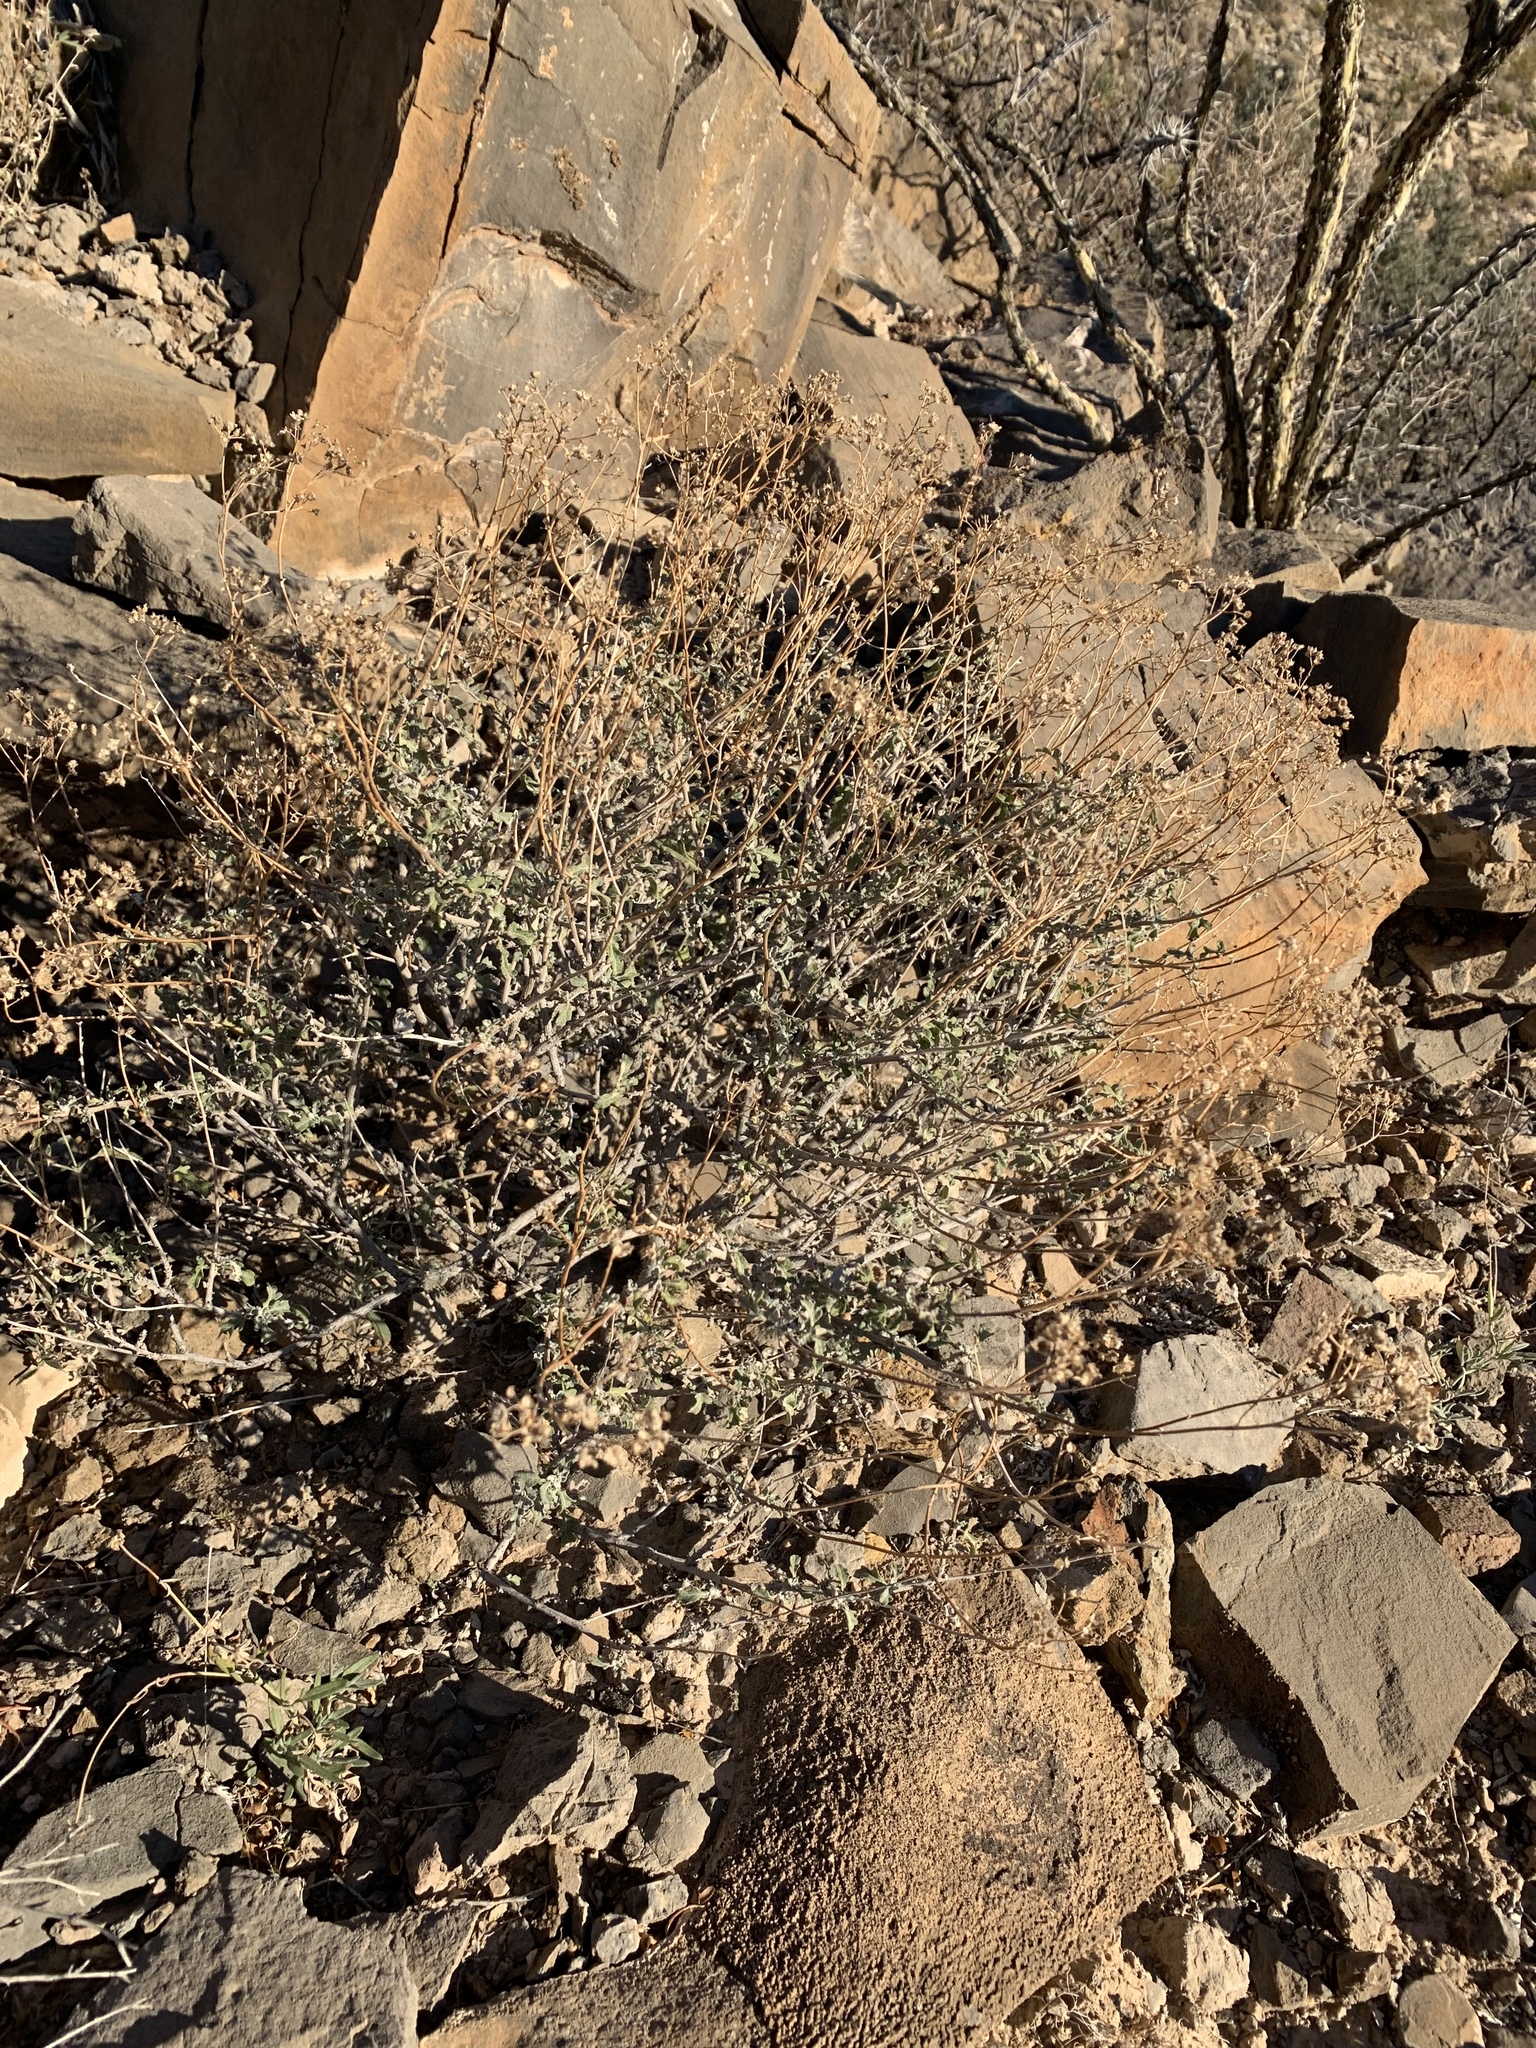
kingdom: Plantae
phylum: Tracheophyta
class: Magnoliopsida
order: Asterales
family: Asteraceae
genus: Parthenium
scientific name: Parthenium incanum
